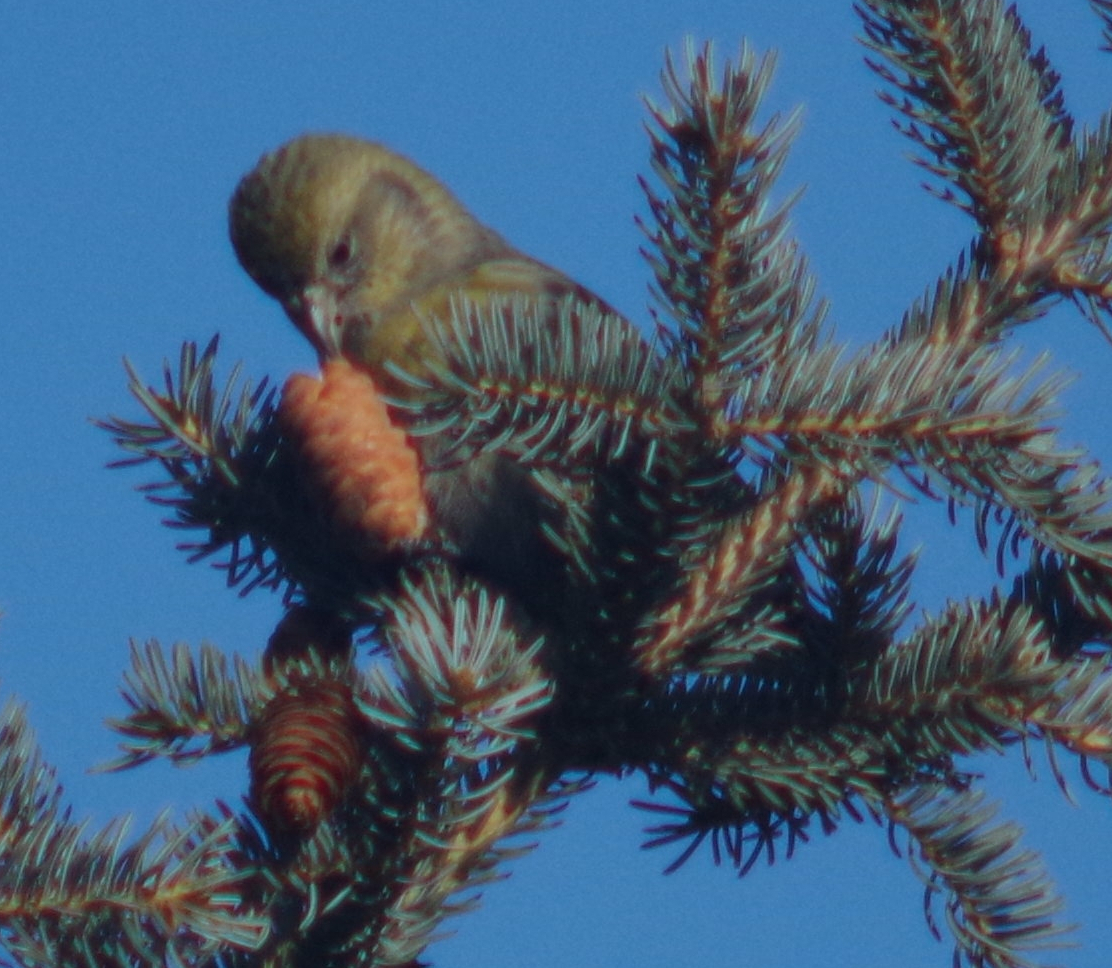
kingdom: Animalia
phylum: Chordata
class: Aves
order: Passeriformes
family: Fringillidae
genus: Loxia
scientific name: Loxia leucoptera
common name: Two-barred crossbill
